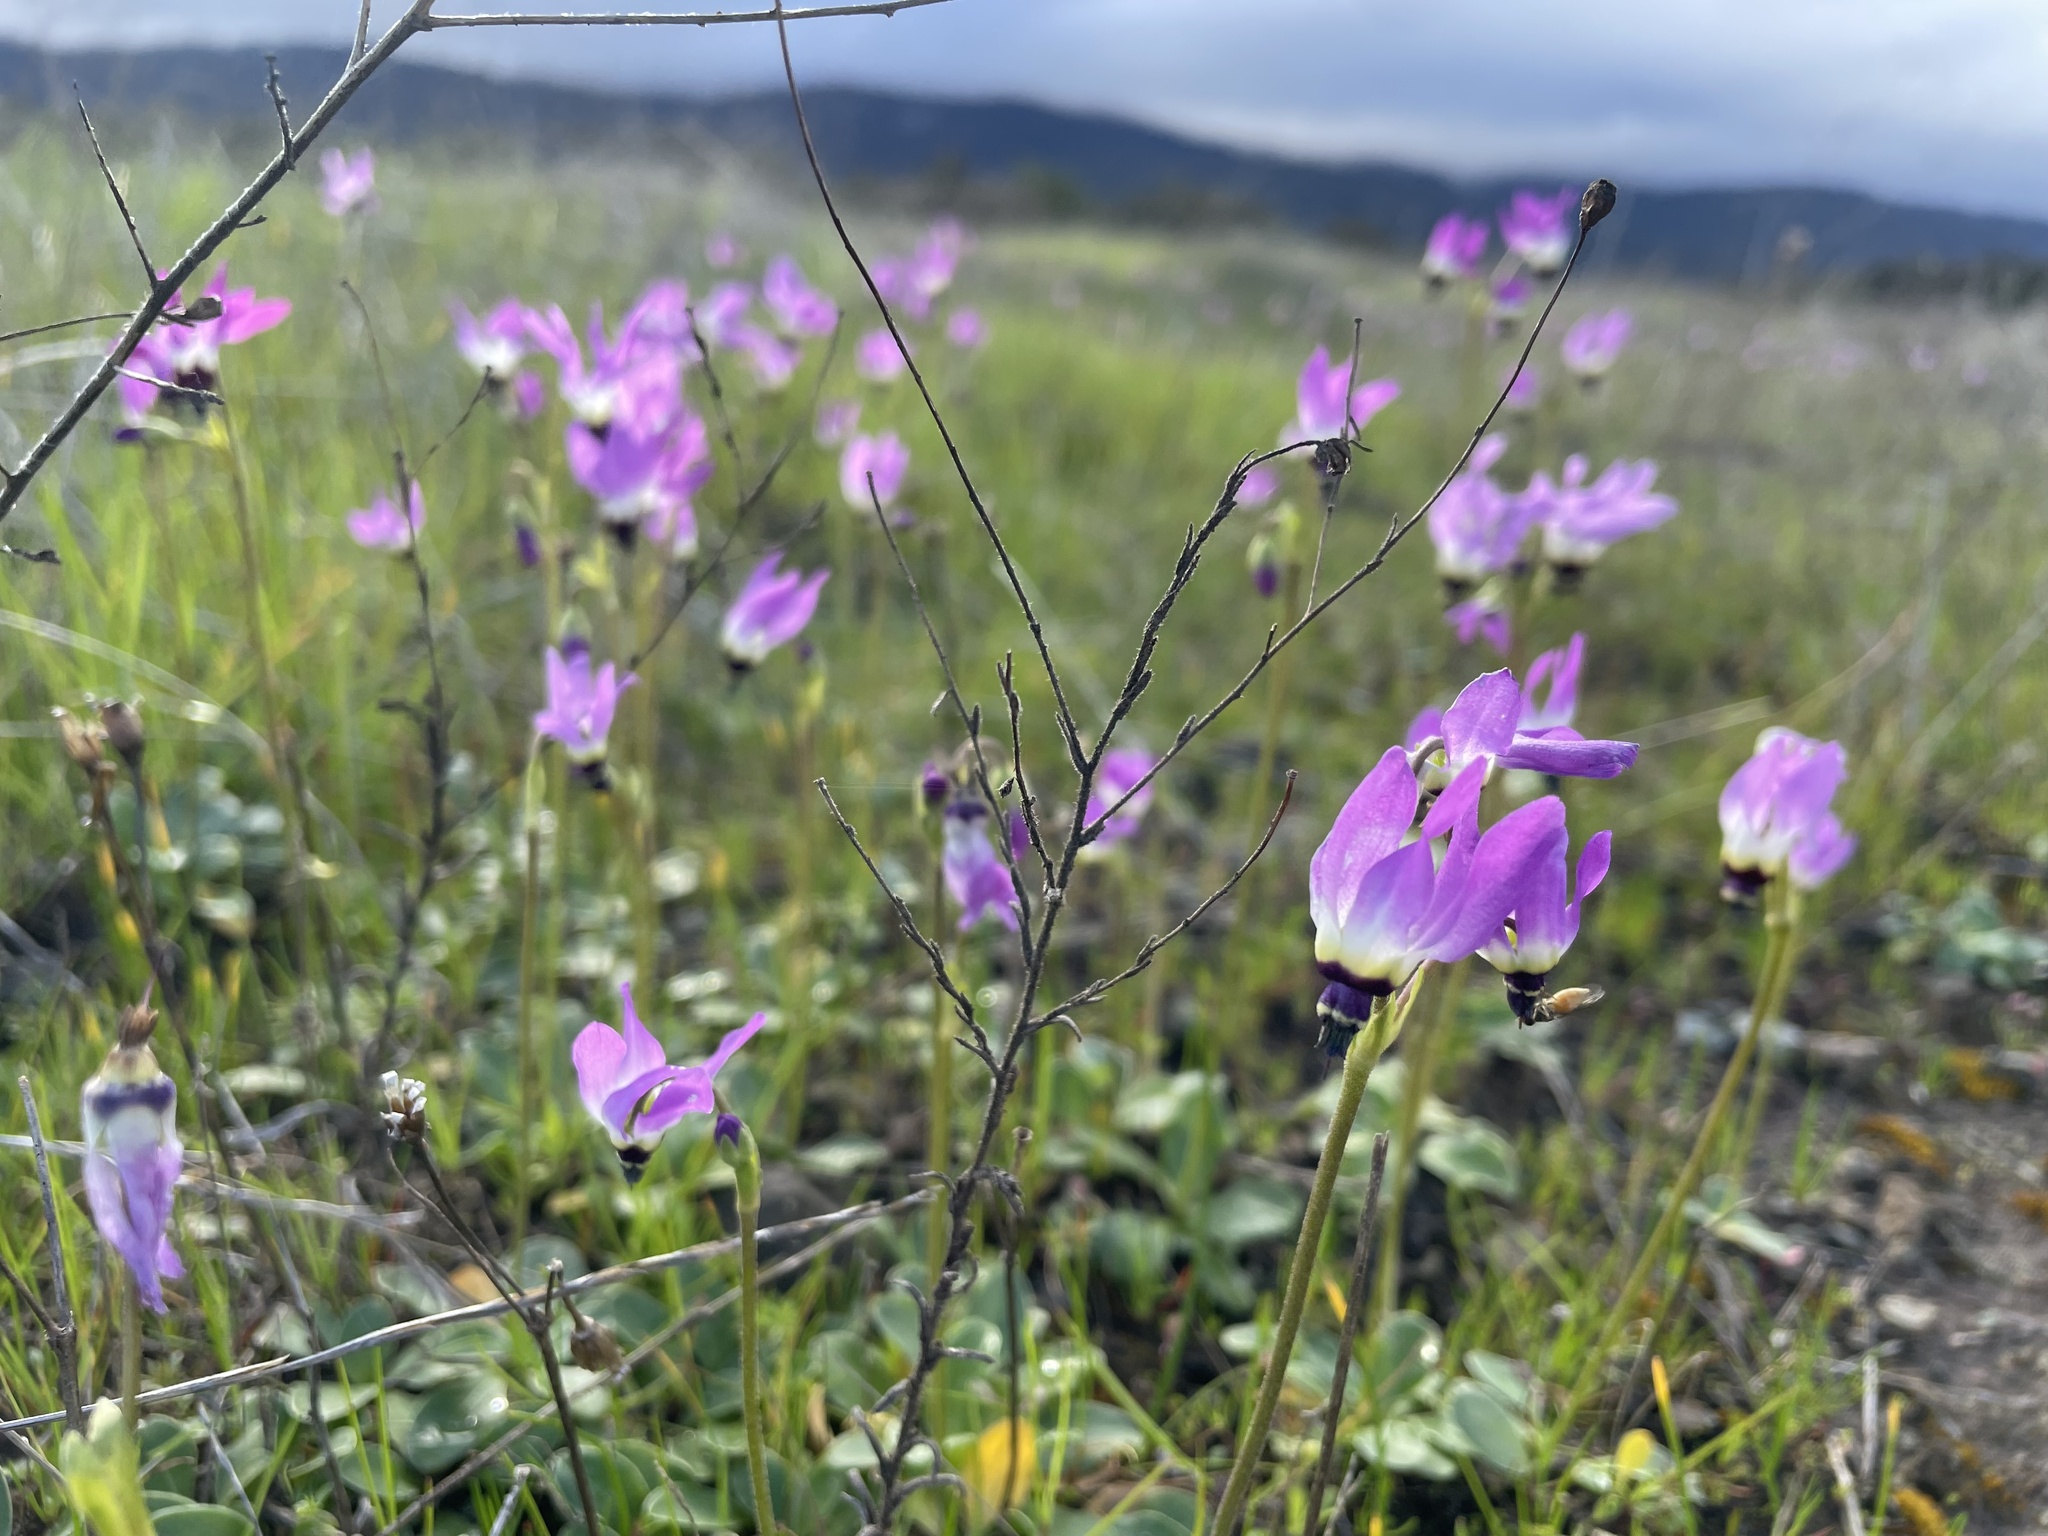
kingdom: Plantae
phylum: Tracheophyta
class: Magnoliopsida
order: Ericales
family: Primulaceae
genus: Dodecatheon
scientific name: Dodecatheon clevelandii
